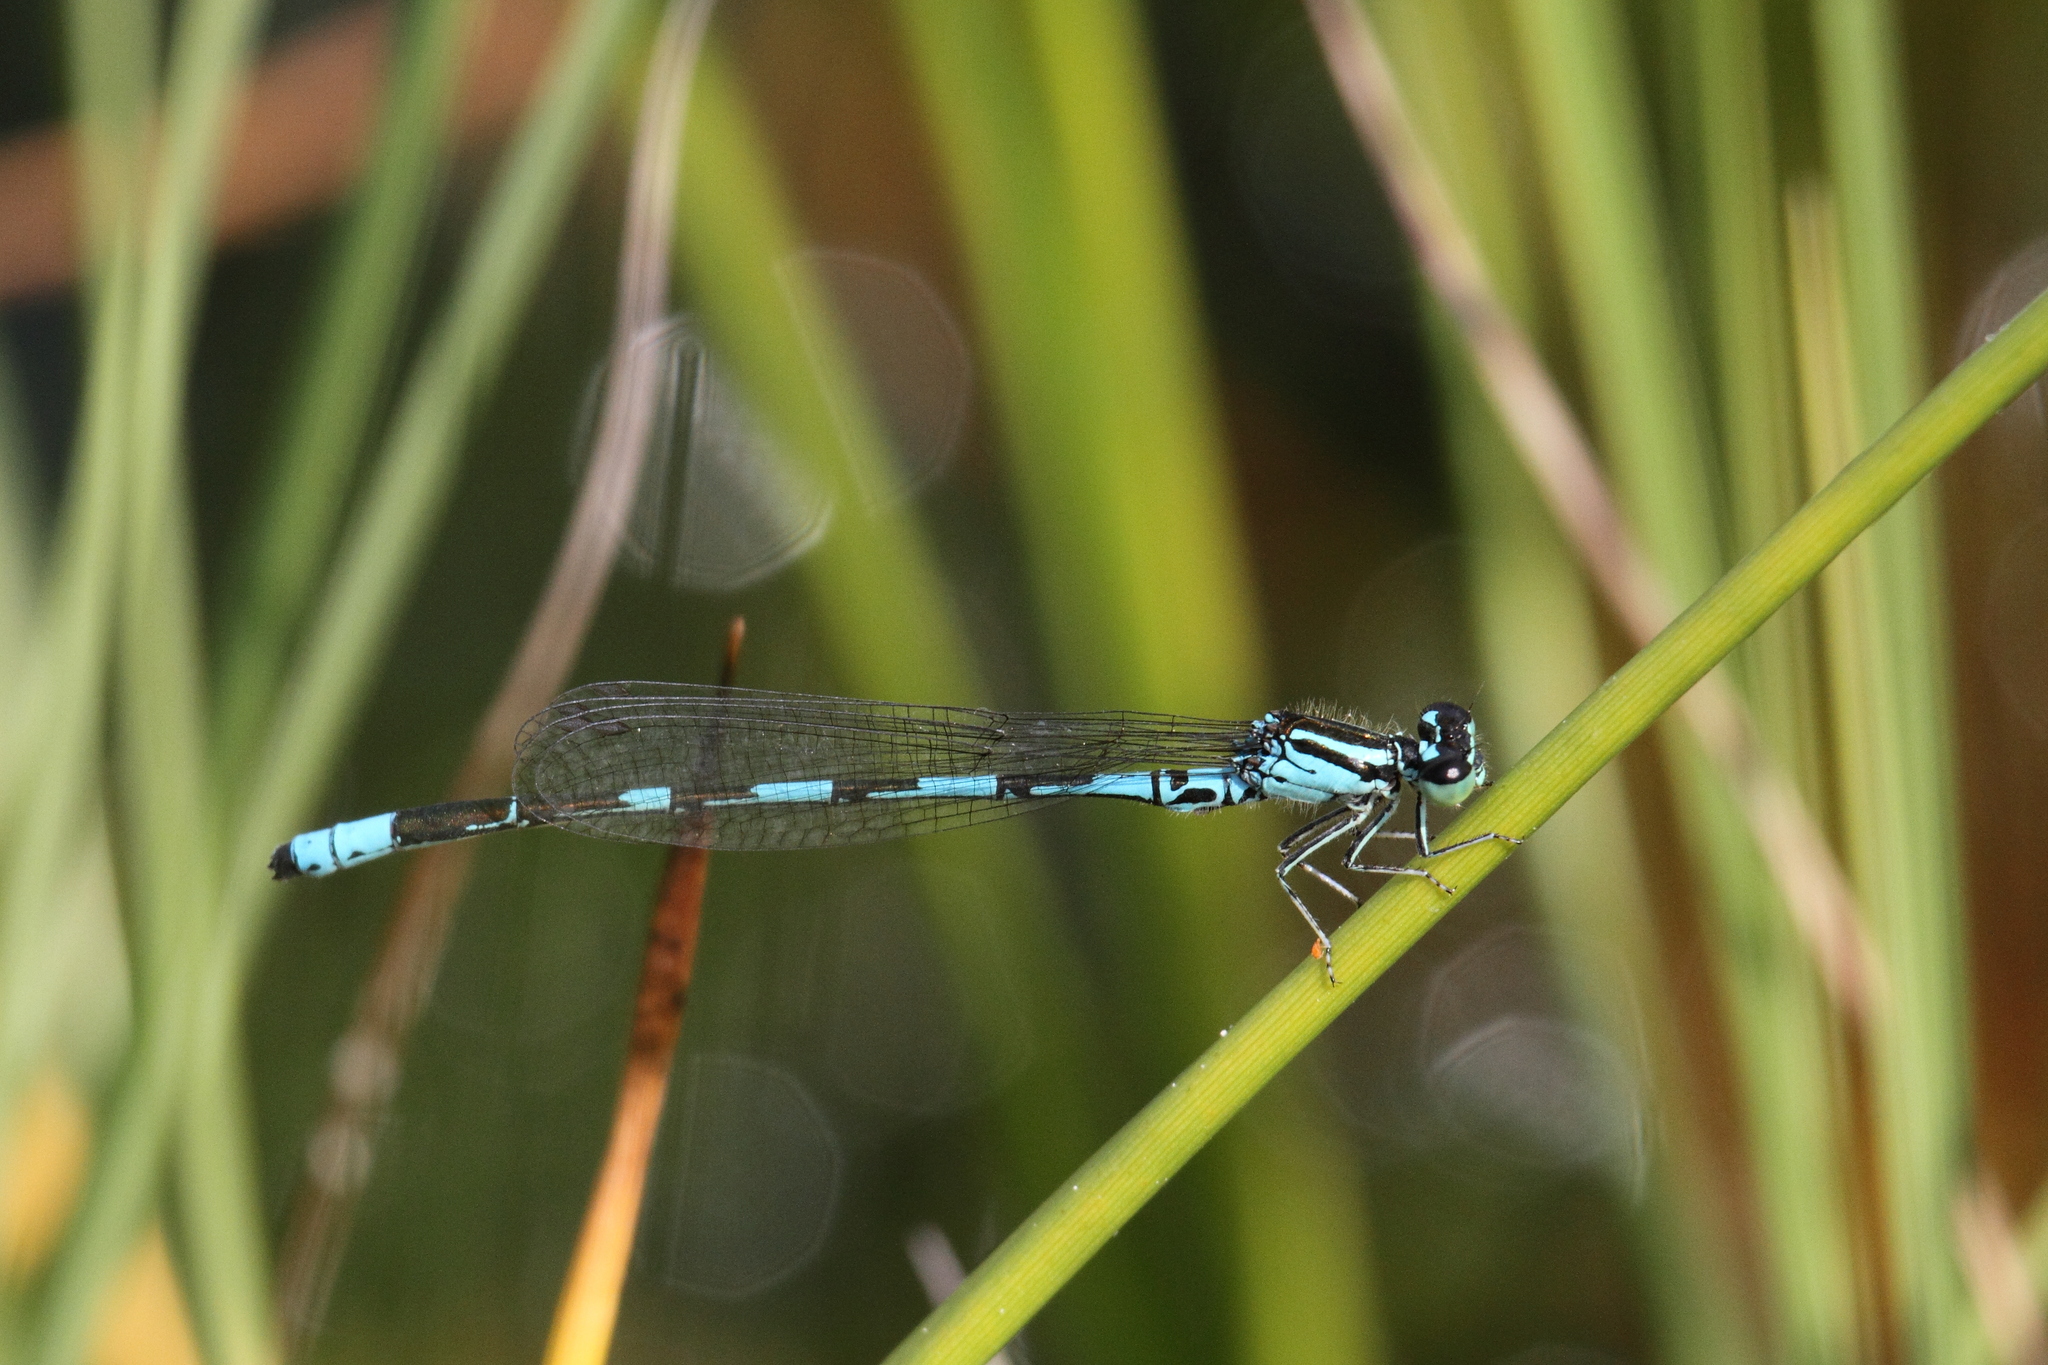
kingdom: Animalia
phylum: Arthropoda
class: Insecta
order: Odonata
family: Coenagrionidae
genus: Coenagrion
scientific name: Coenagrion johanssoni
